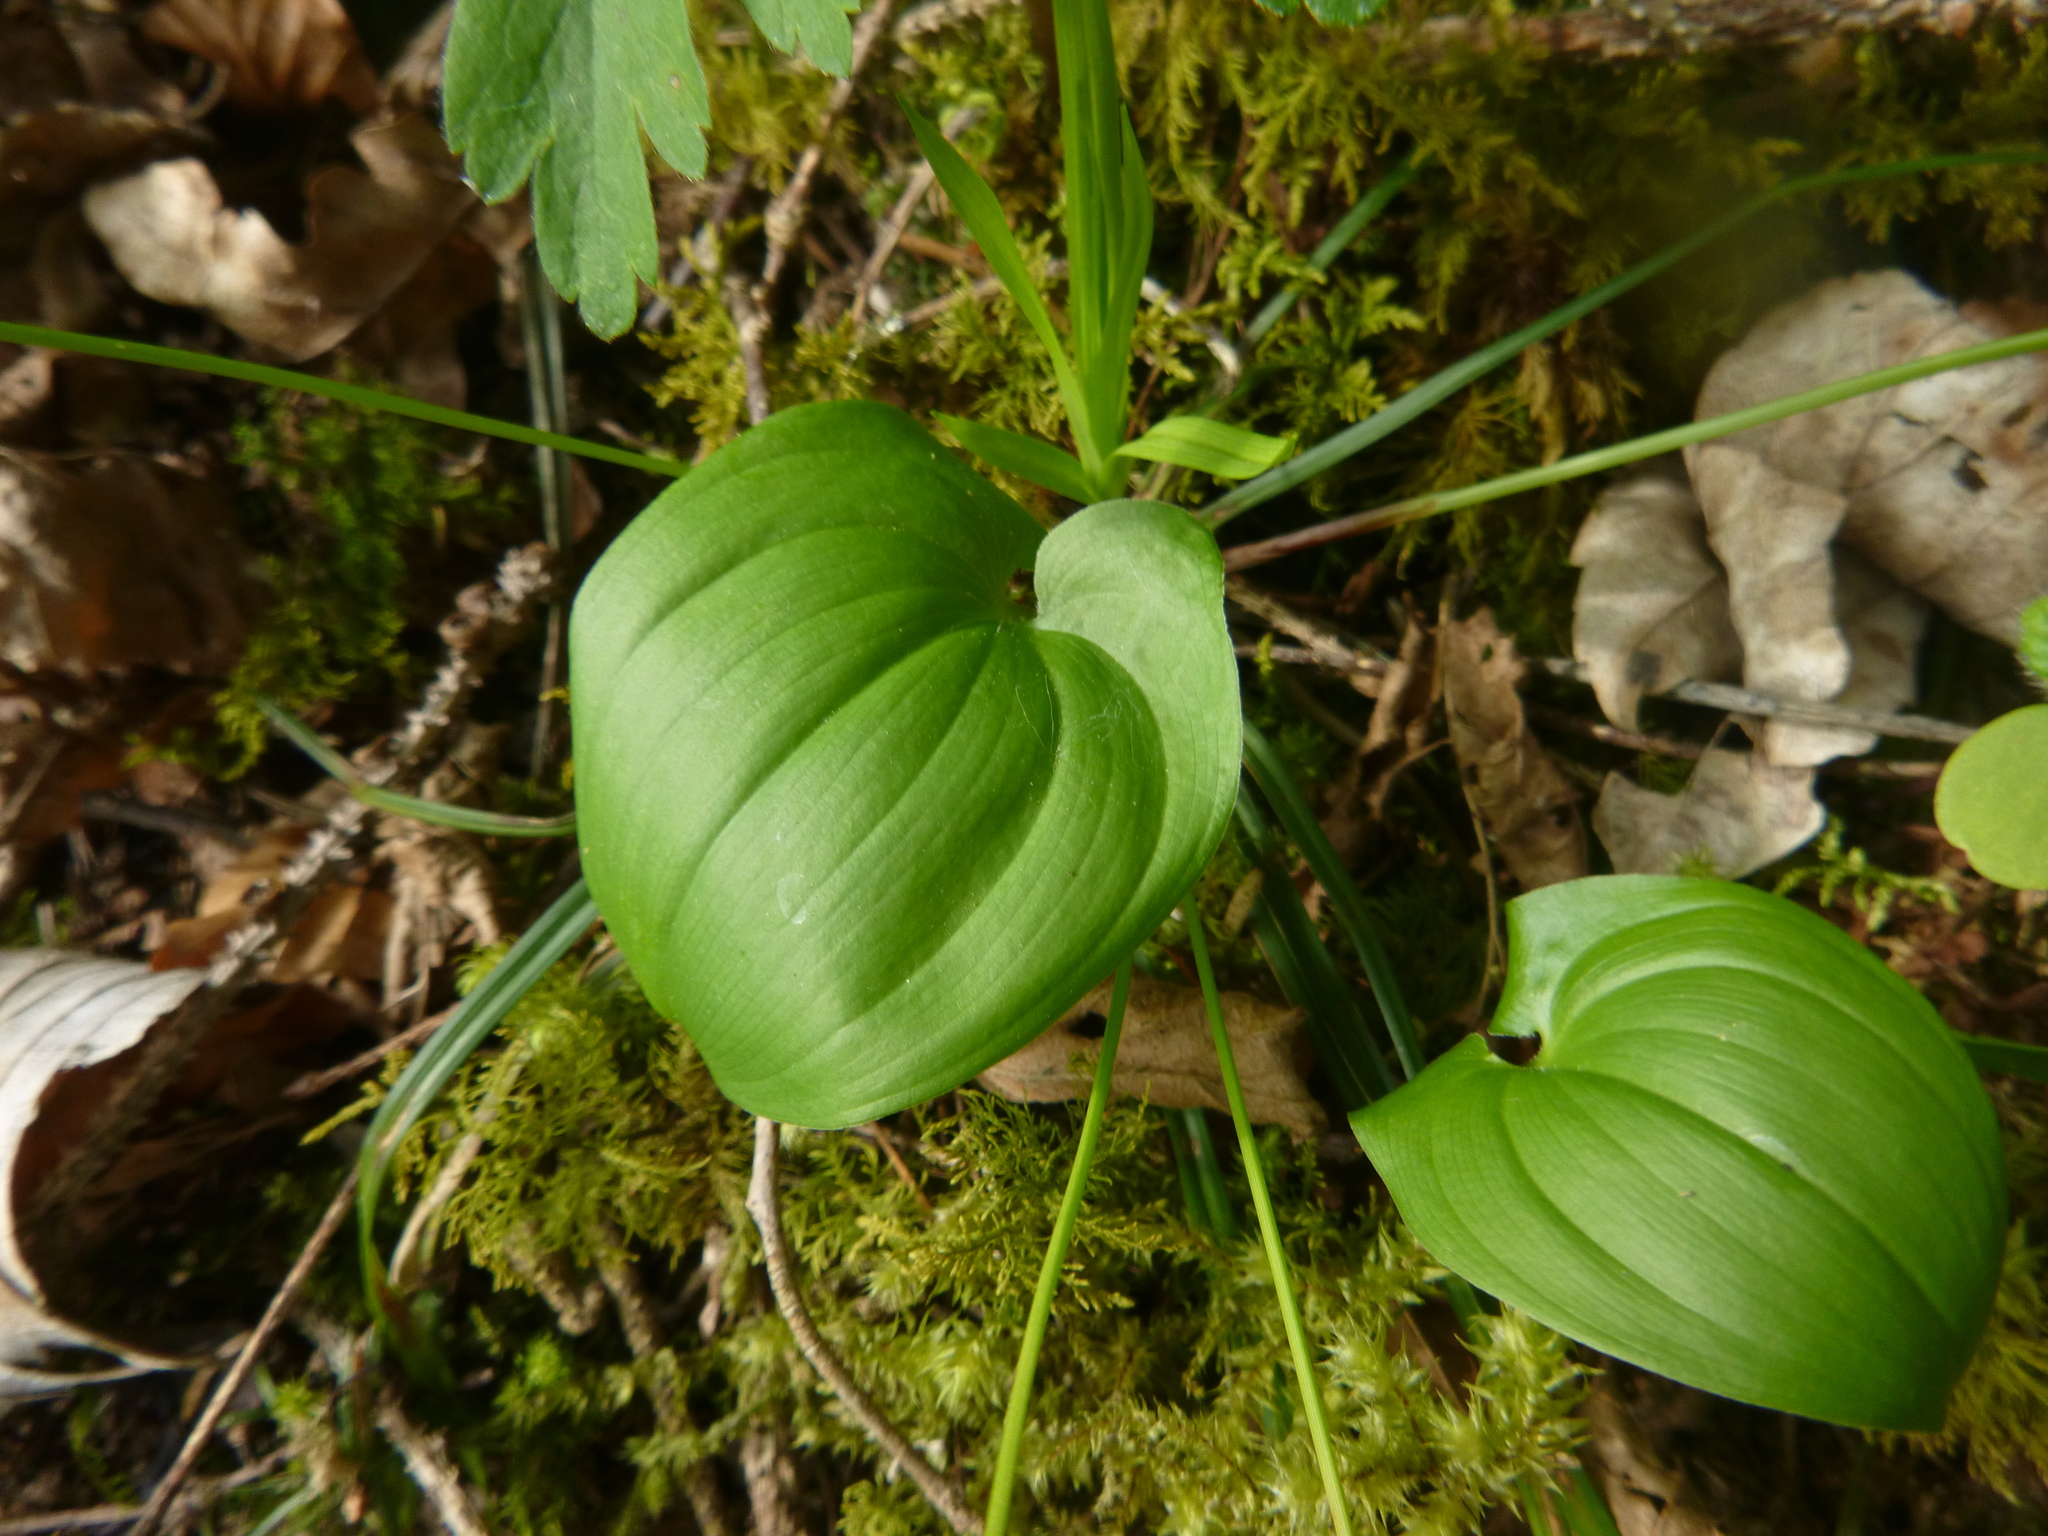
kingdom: Plantae
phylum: Tracheophyta
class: Liliopsida
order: Asparagales
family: Asparagaceae
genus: Maianthemum
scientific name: Maianthemum bifolium
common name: May lily
